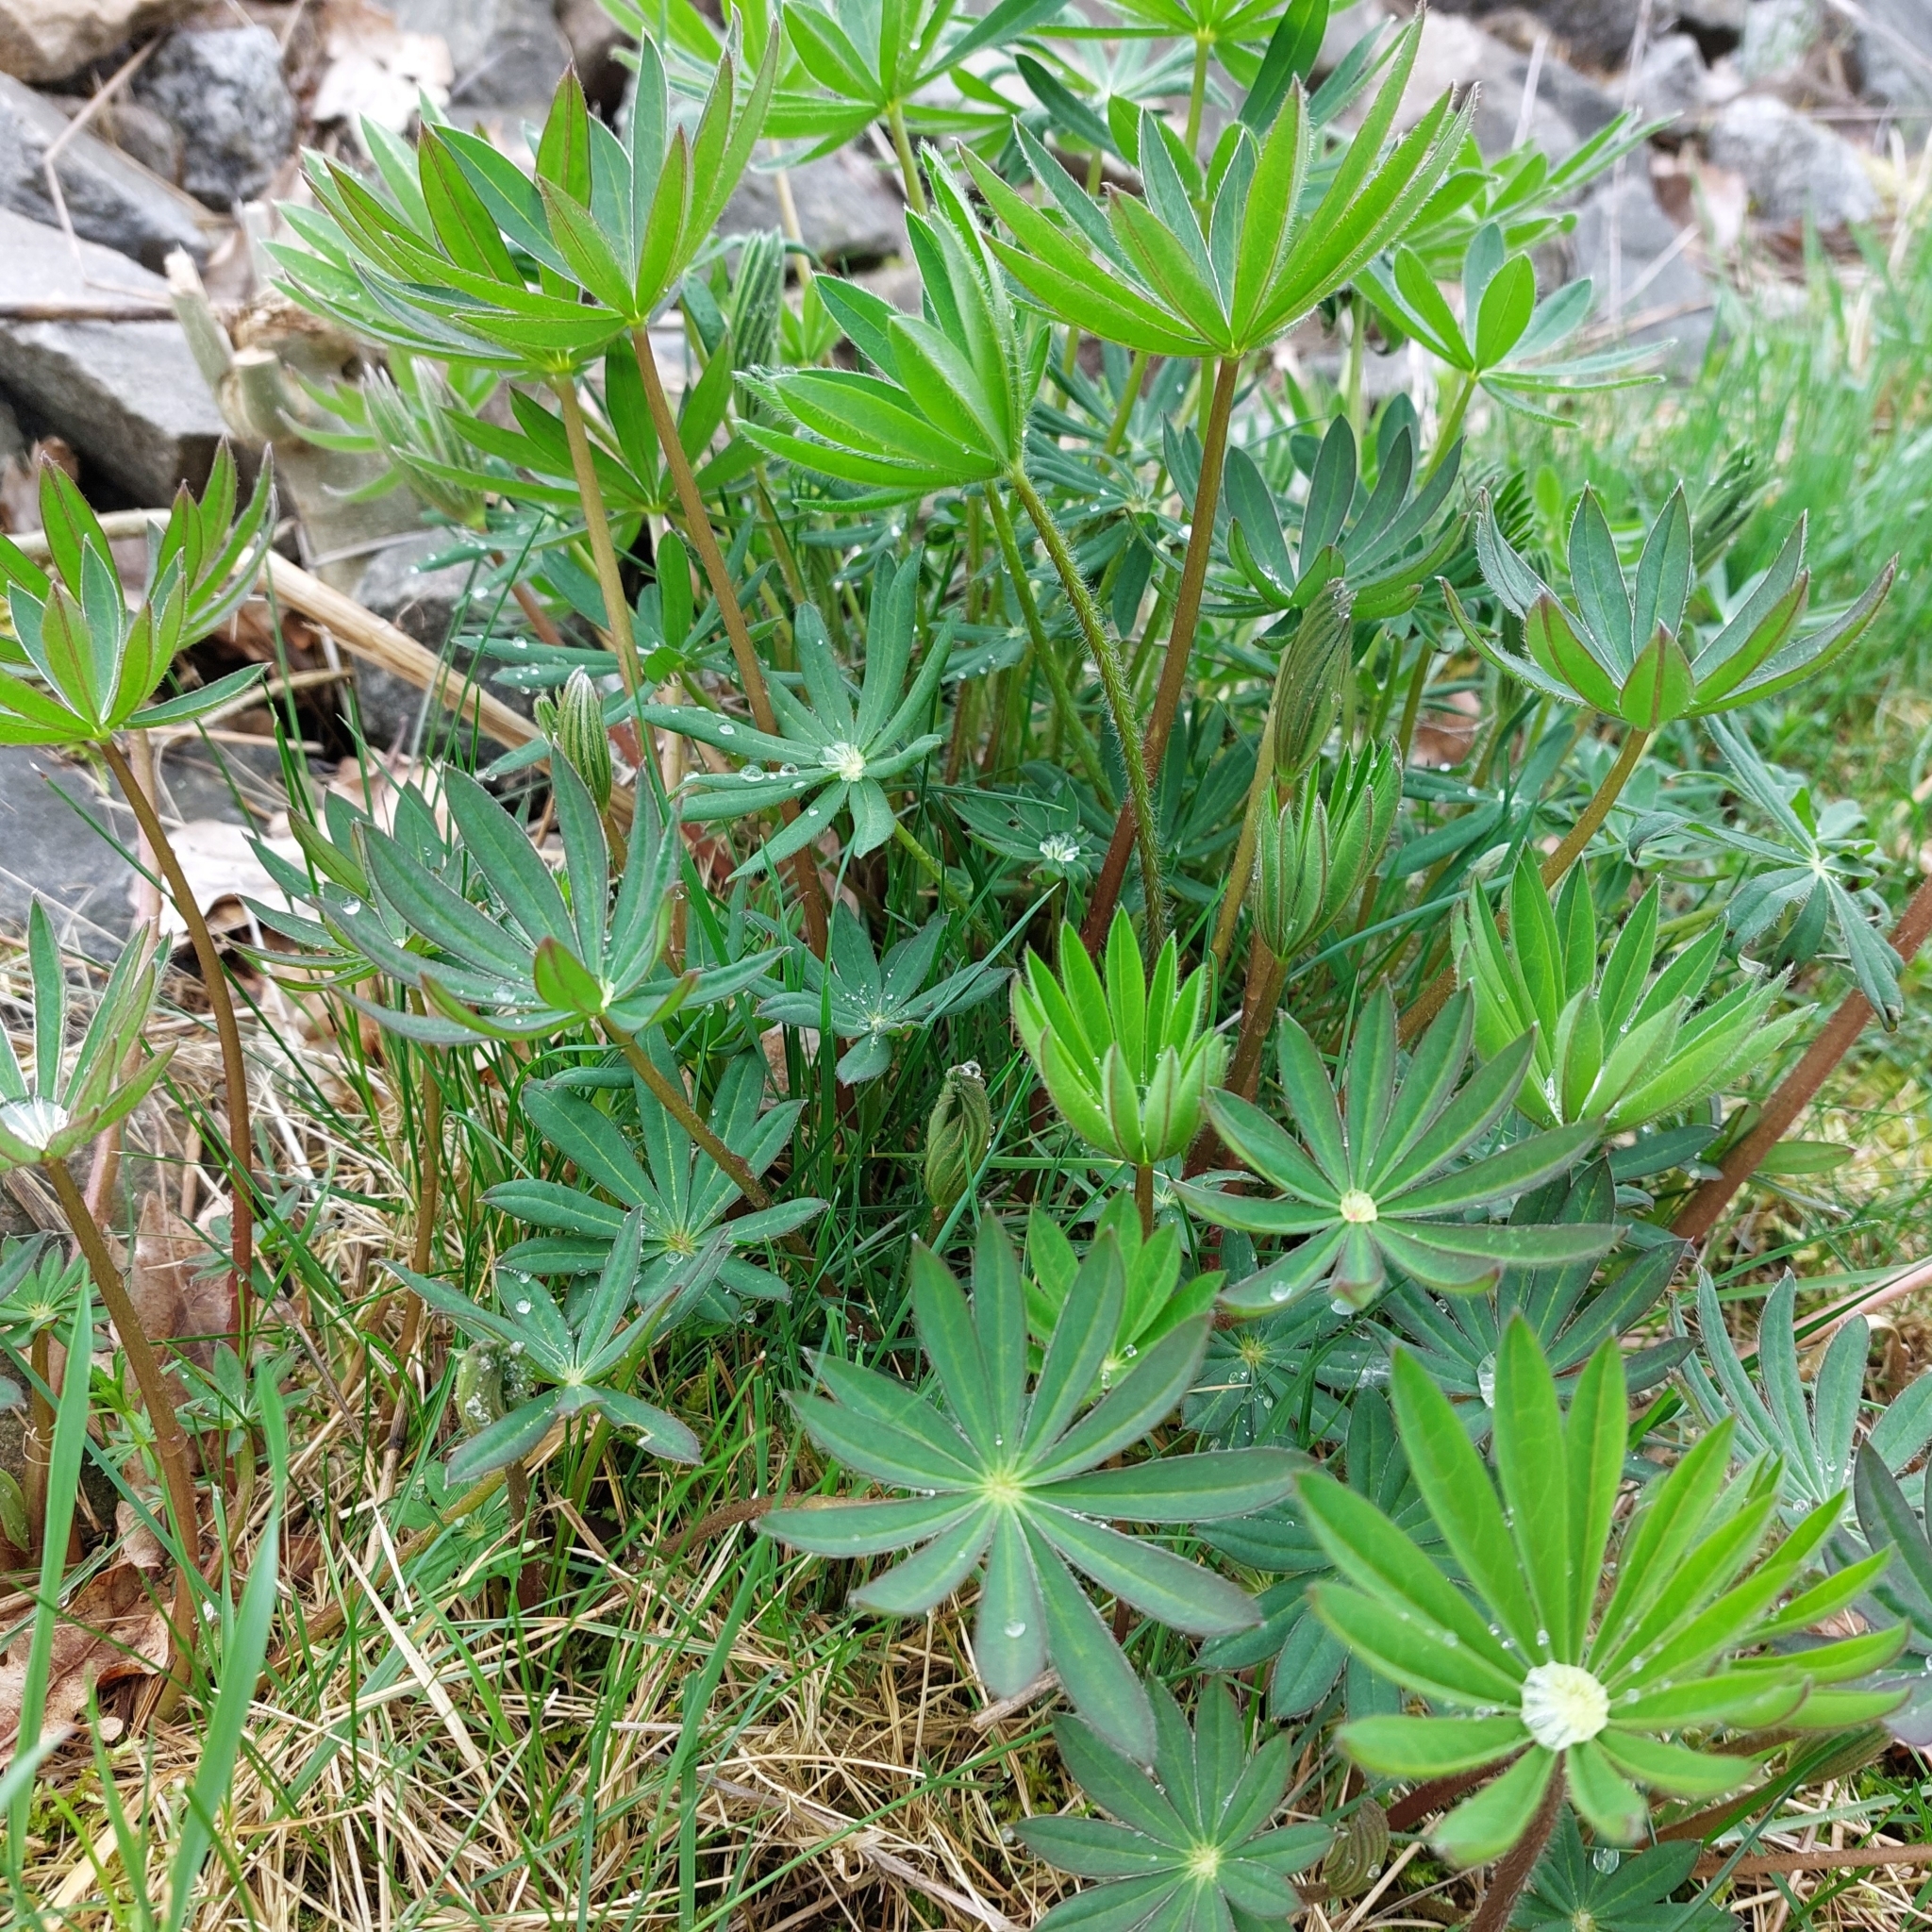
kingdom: Plantae
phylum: Tracheophyta
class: Magnoliopsida
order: Fabales
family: Fabaceae
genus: Lupinus
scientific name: Lupinus polyphyllus
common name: Garden lupin
